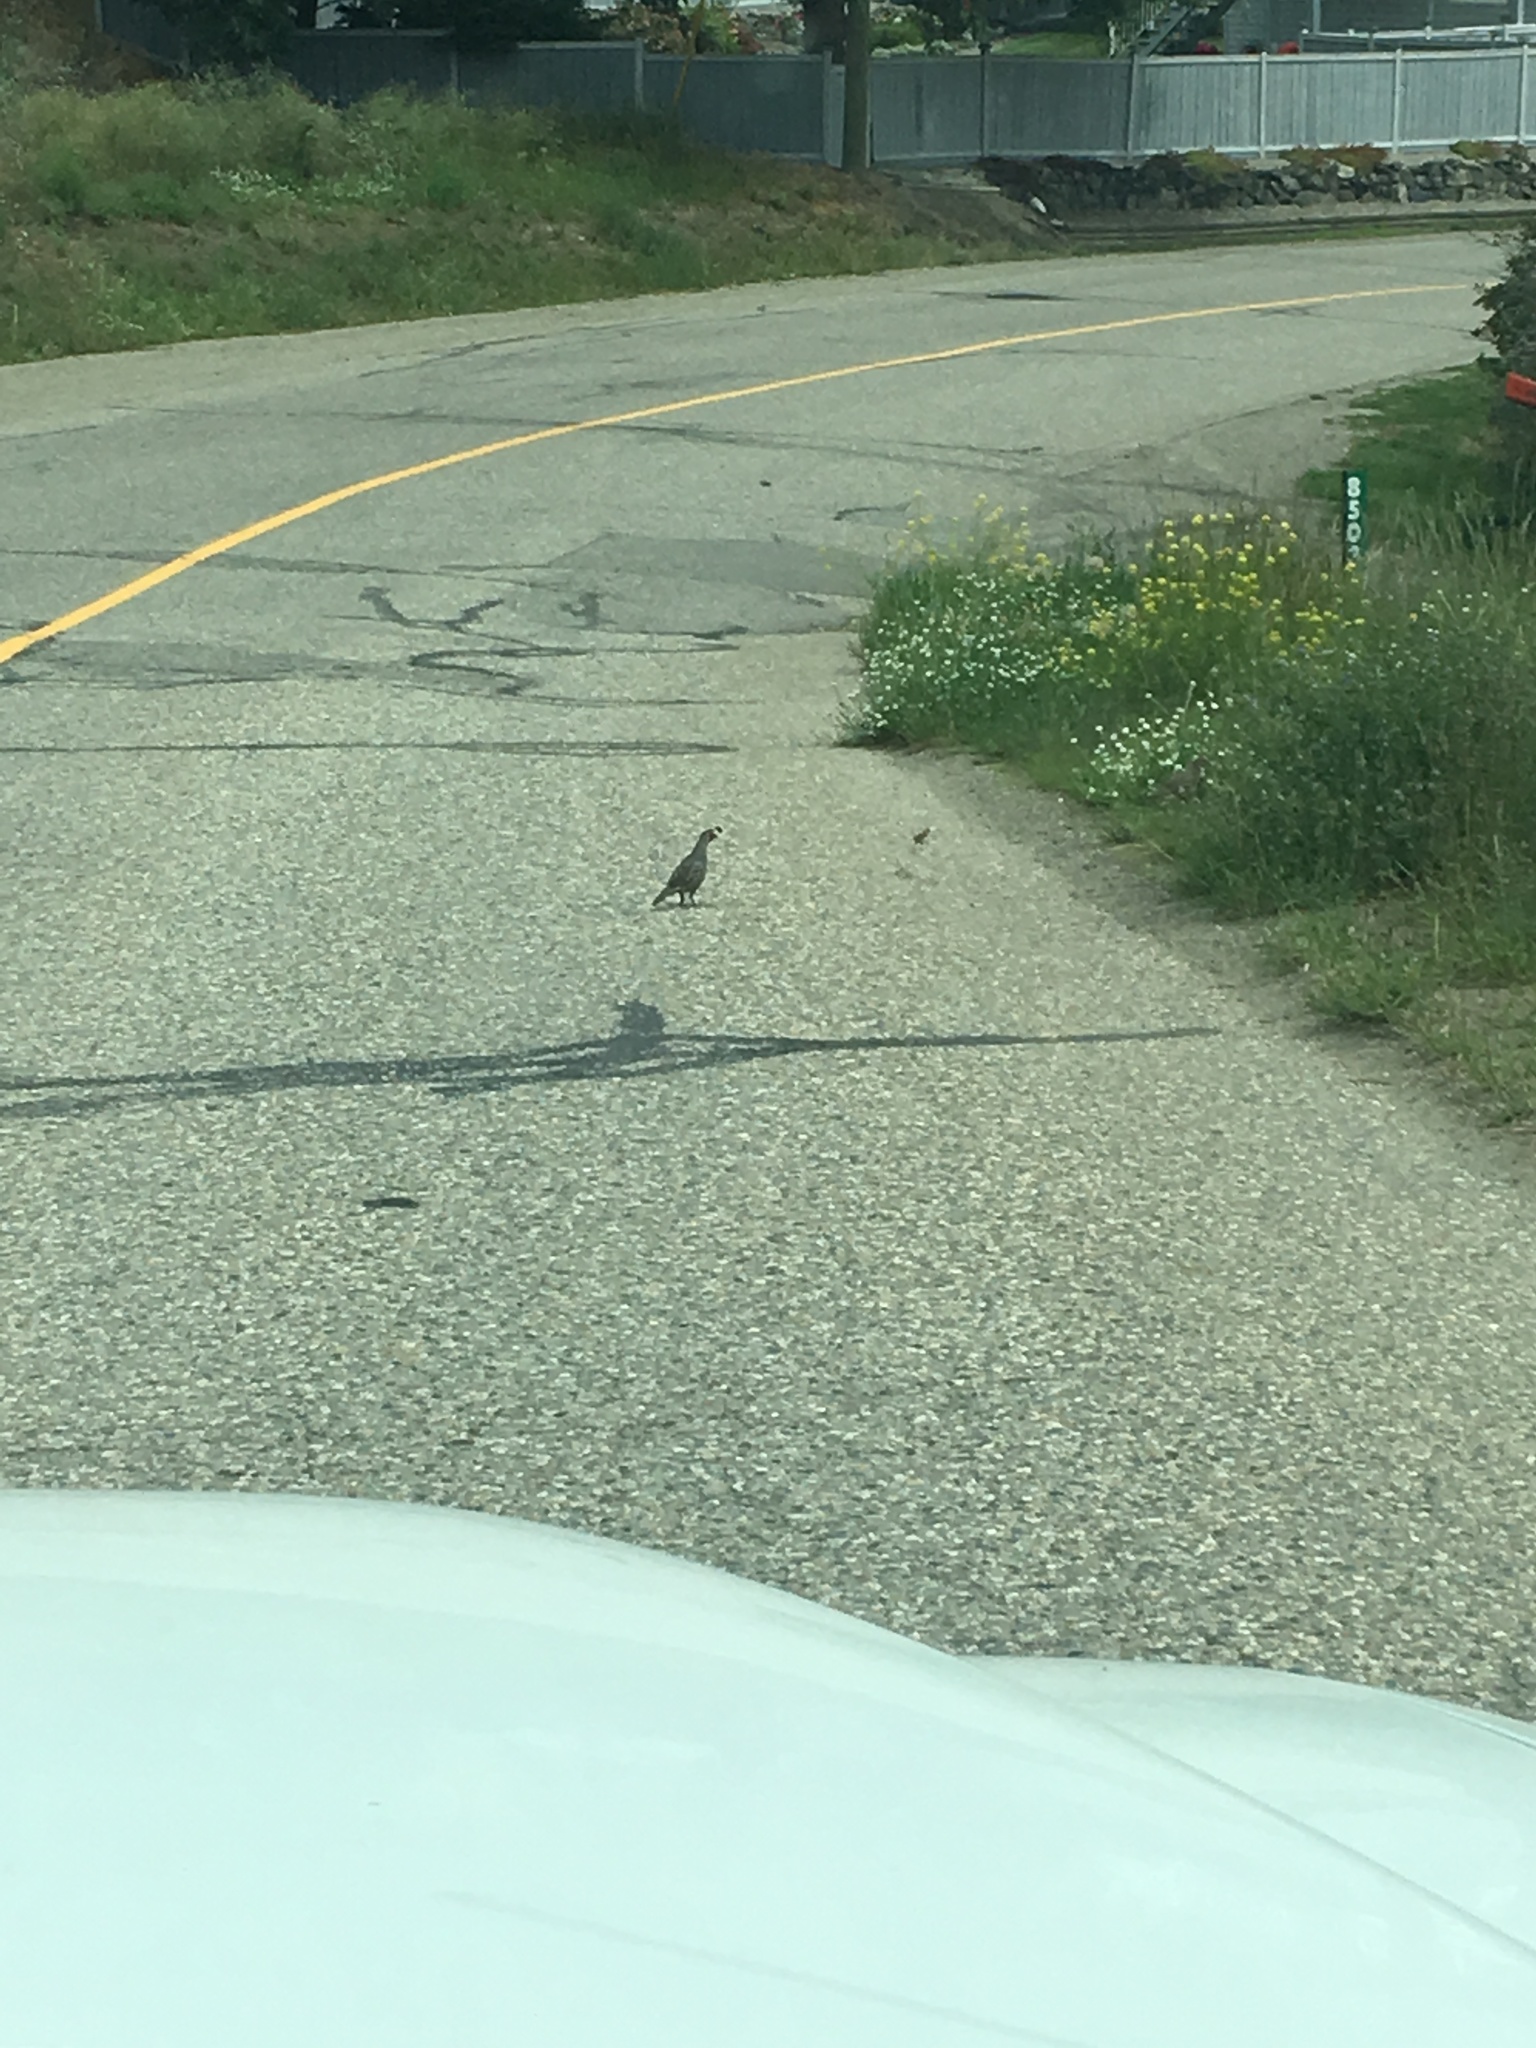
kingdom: Animalia
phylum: Chordata
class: Aves
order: Galliformes
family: Odontophoridae
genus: Callipepla
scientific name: Callipepla californica
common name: California quail
